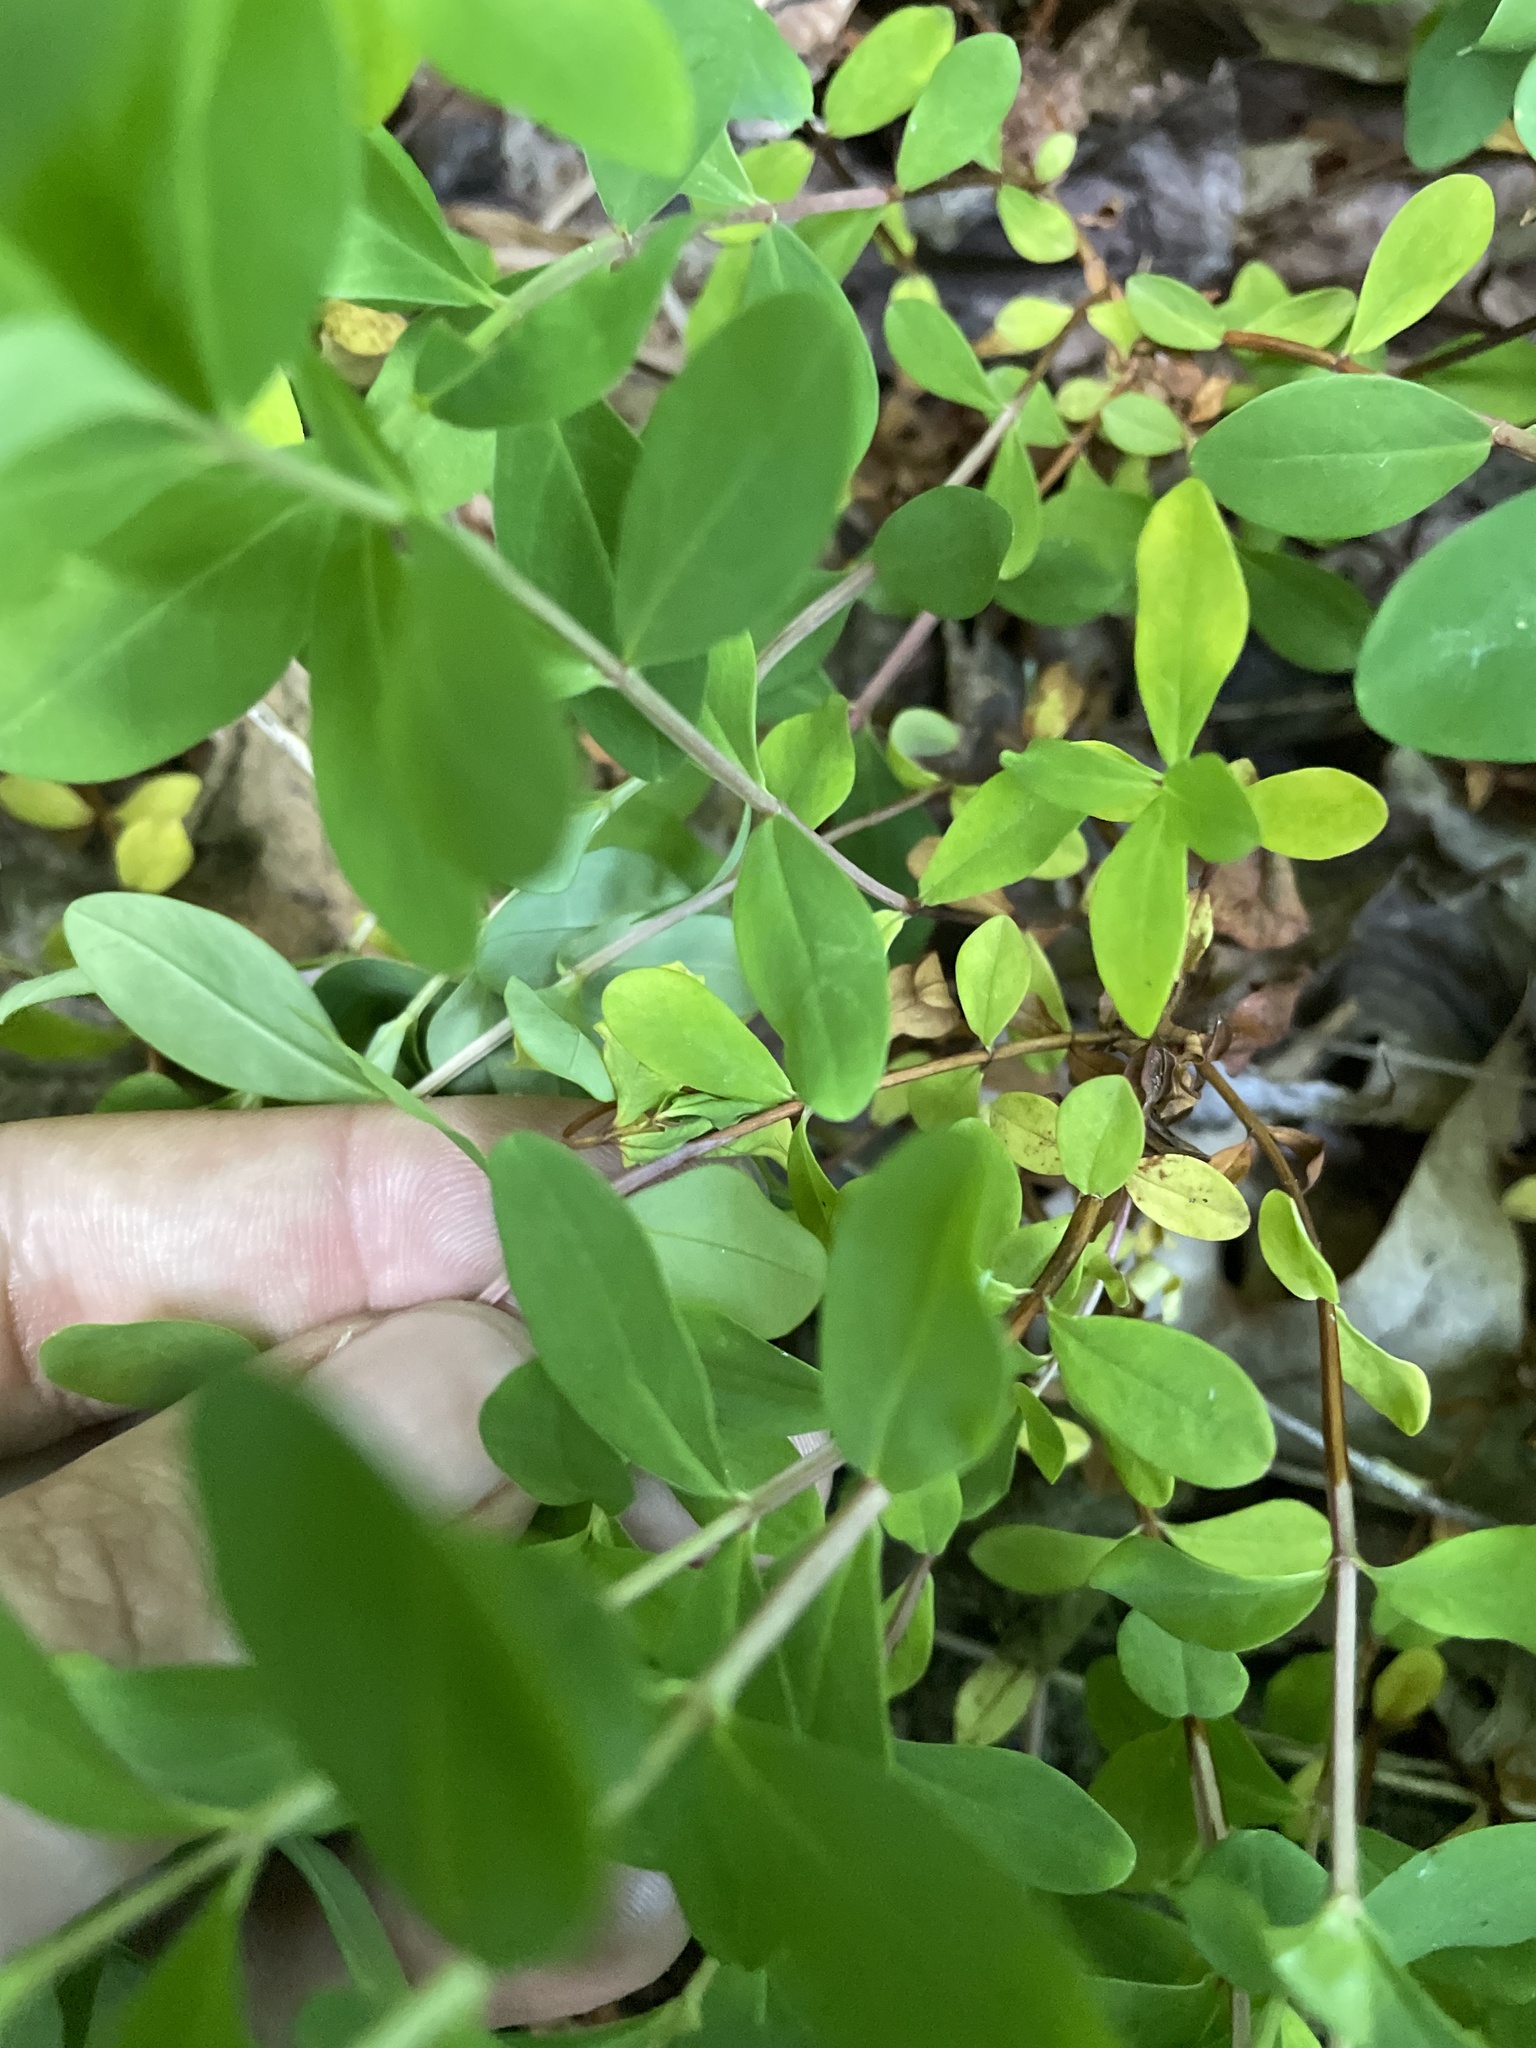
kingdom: Plantae
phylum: Tracheophyta
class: Magnoliopsida
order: Malpighiales
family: Hypericaceae
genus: Hypericum
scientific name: Hypericum buckleyi
